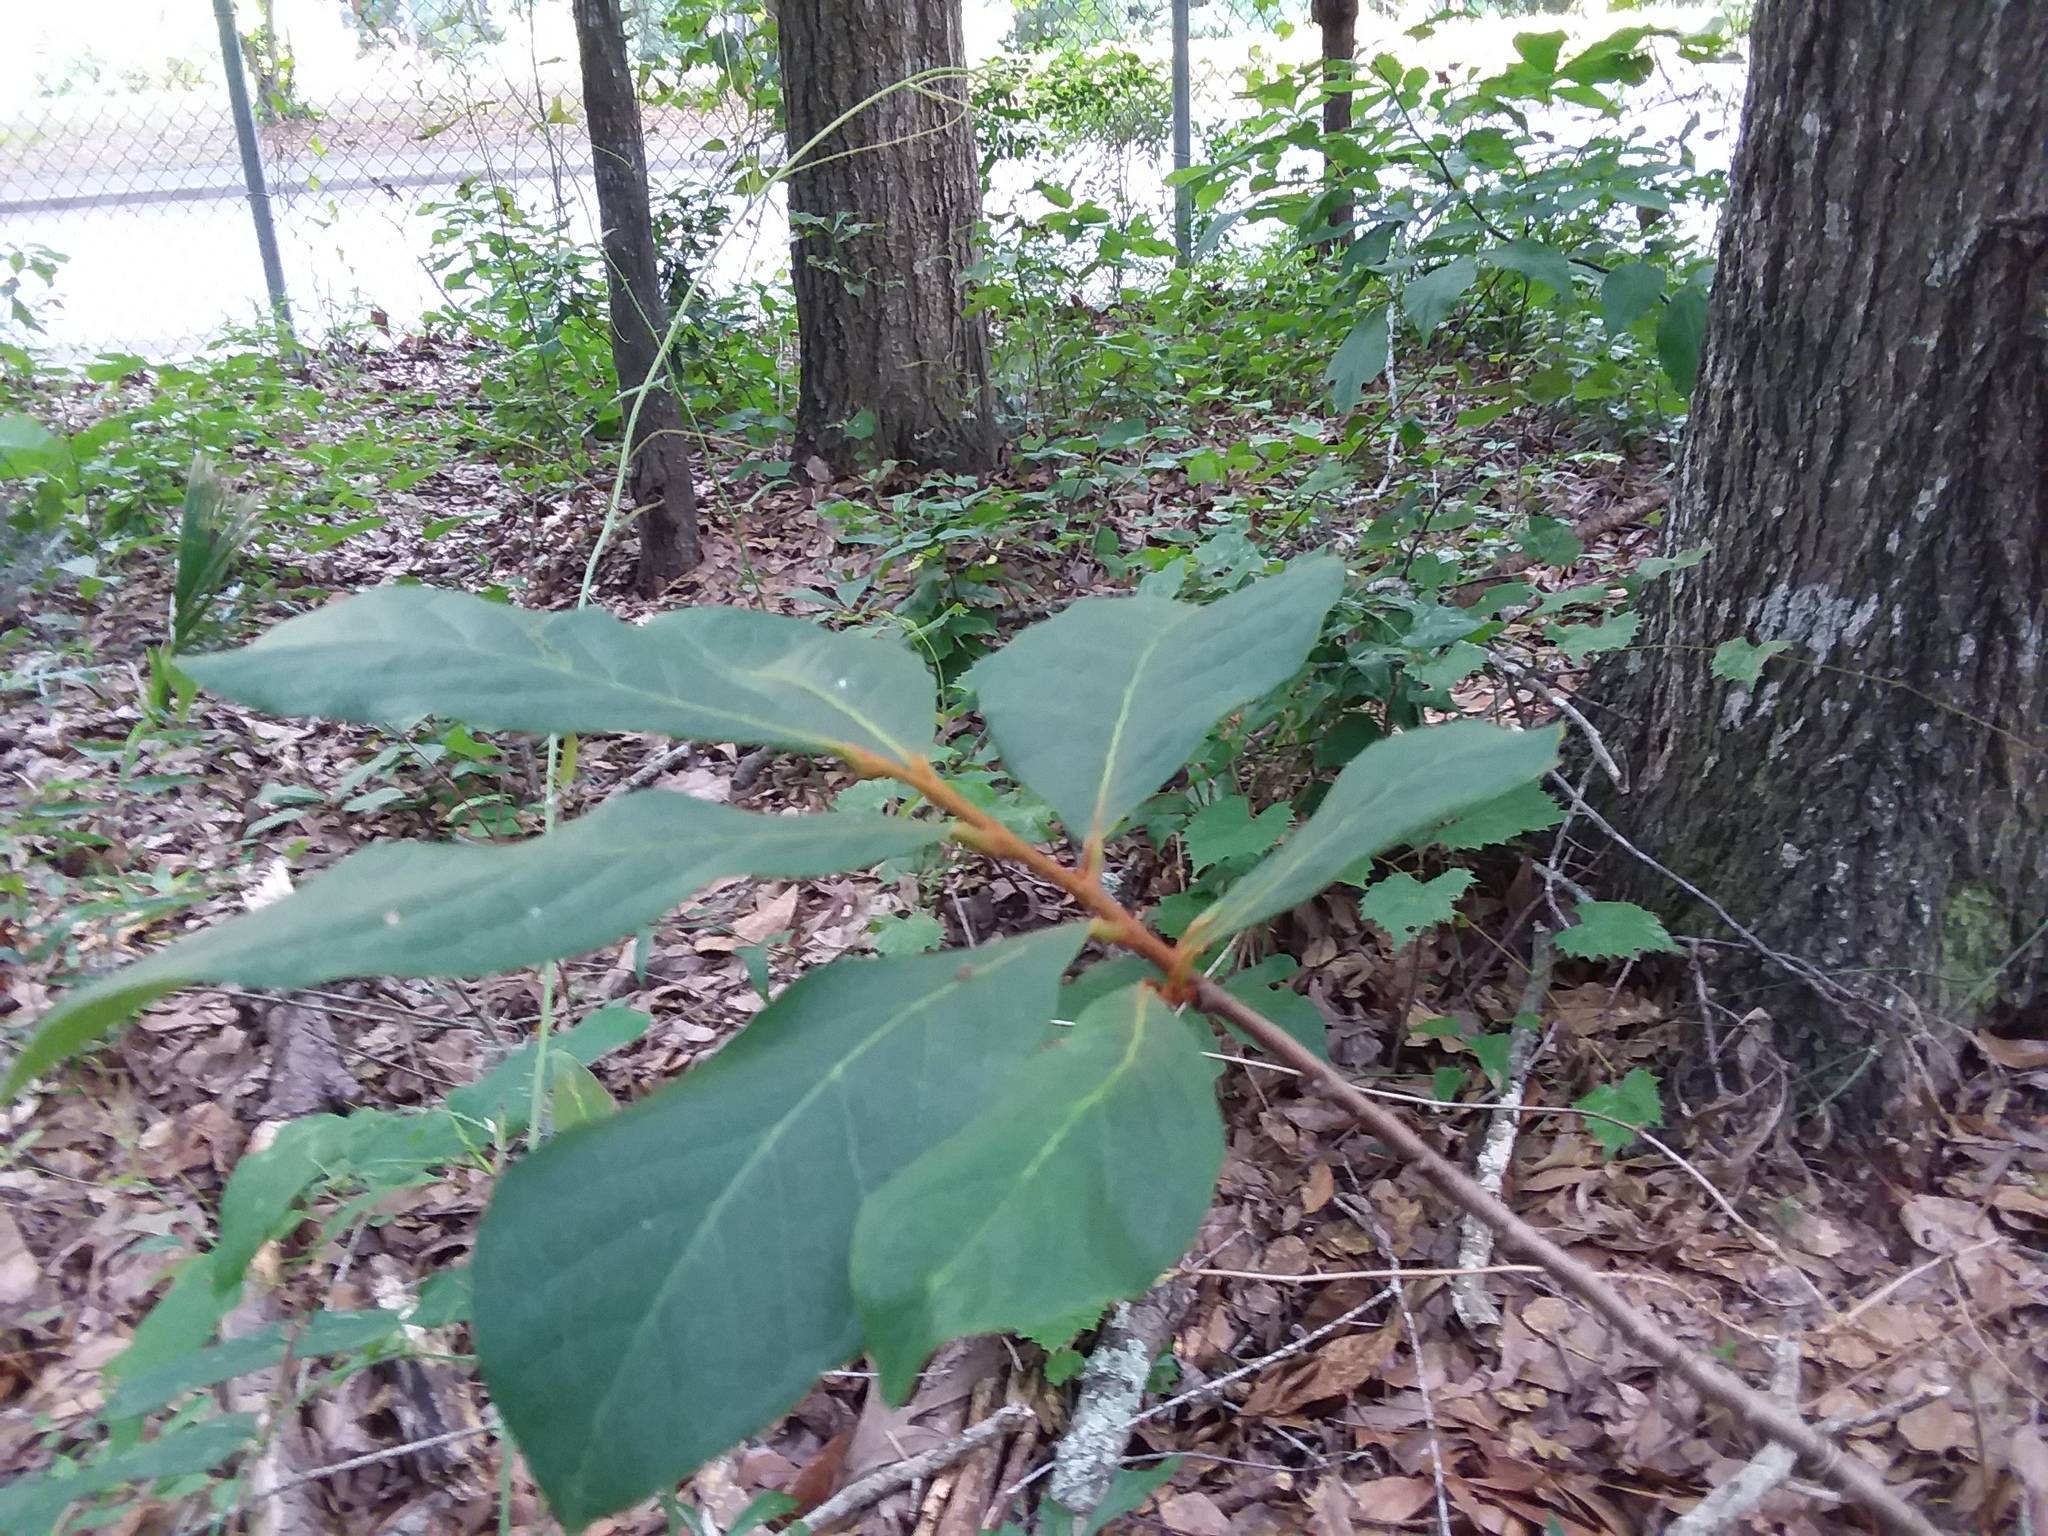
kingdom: Plantae
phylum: Tracheophyta
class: Magnoliopsida
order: Magnoliales
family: Annonaceae
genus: Asimina
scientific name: Asimina parviflora
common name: Dwarf pawpaw
